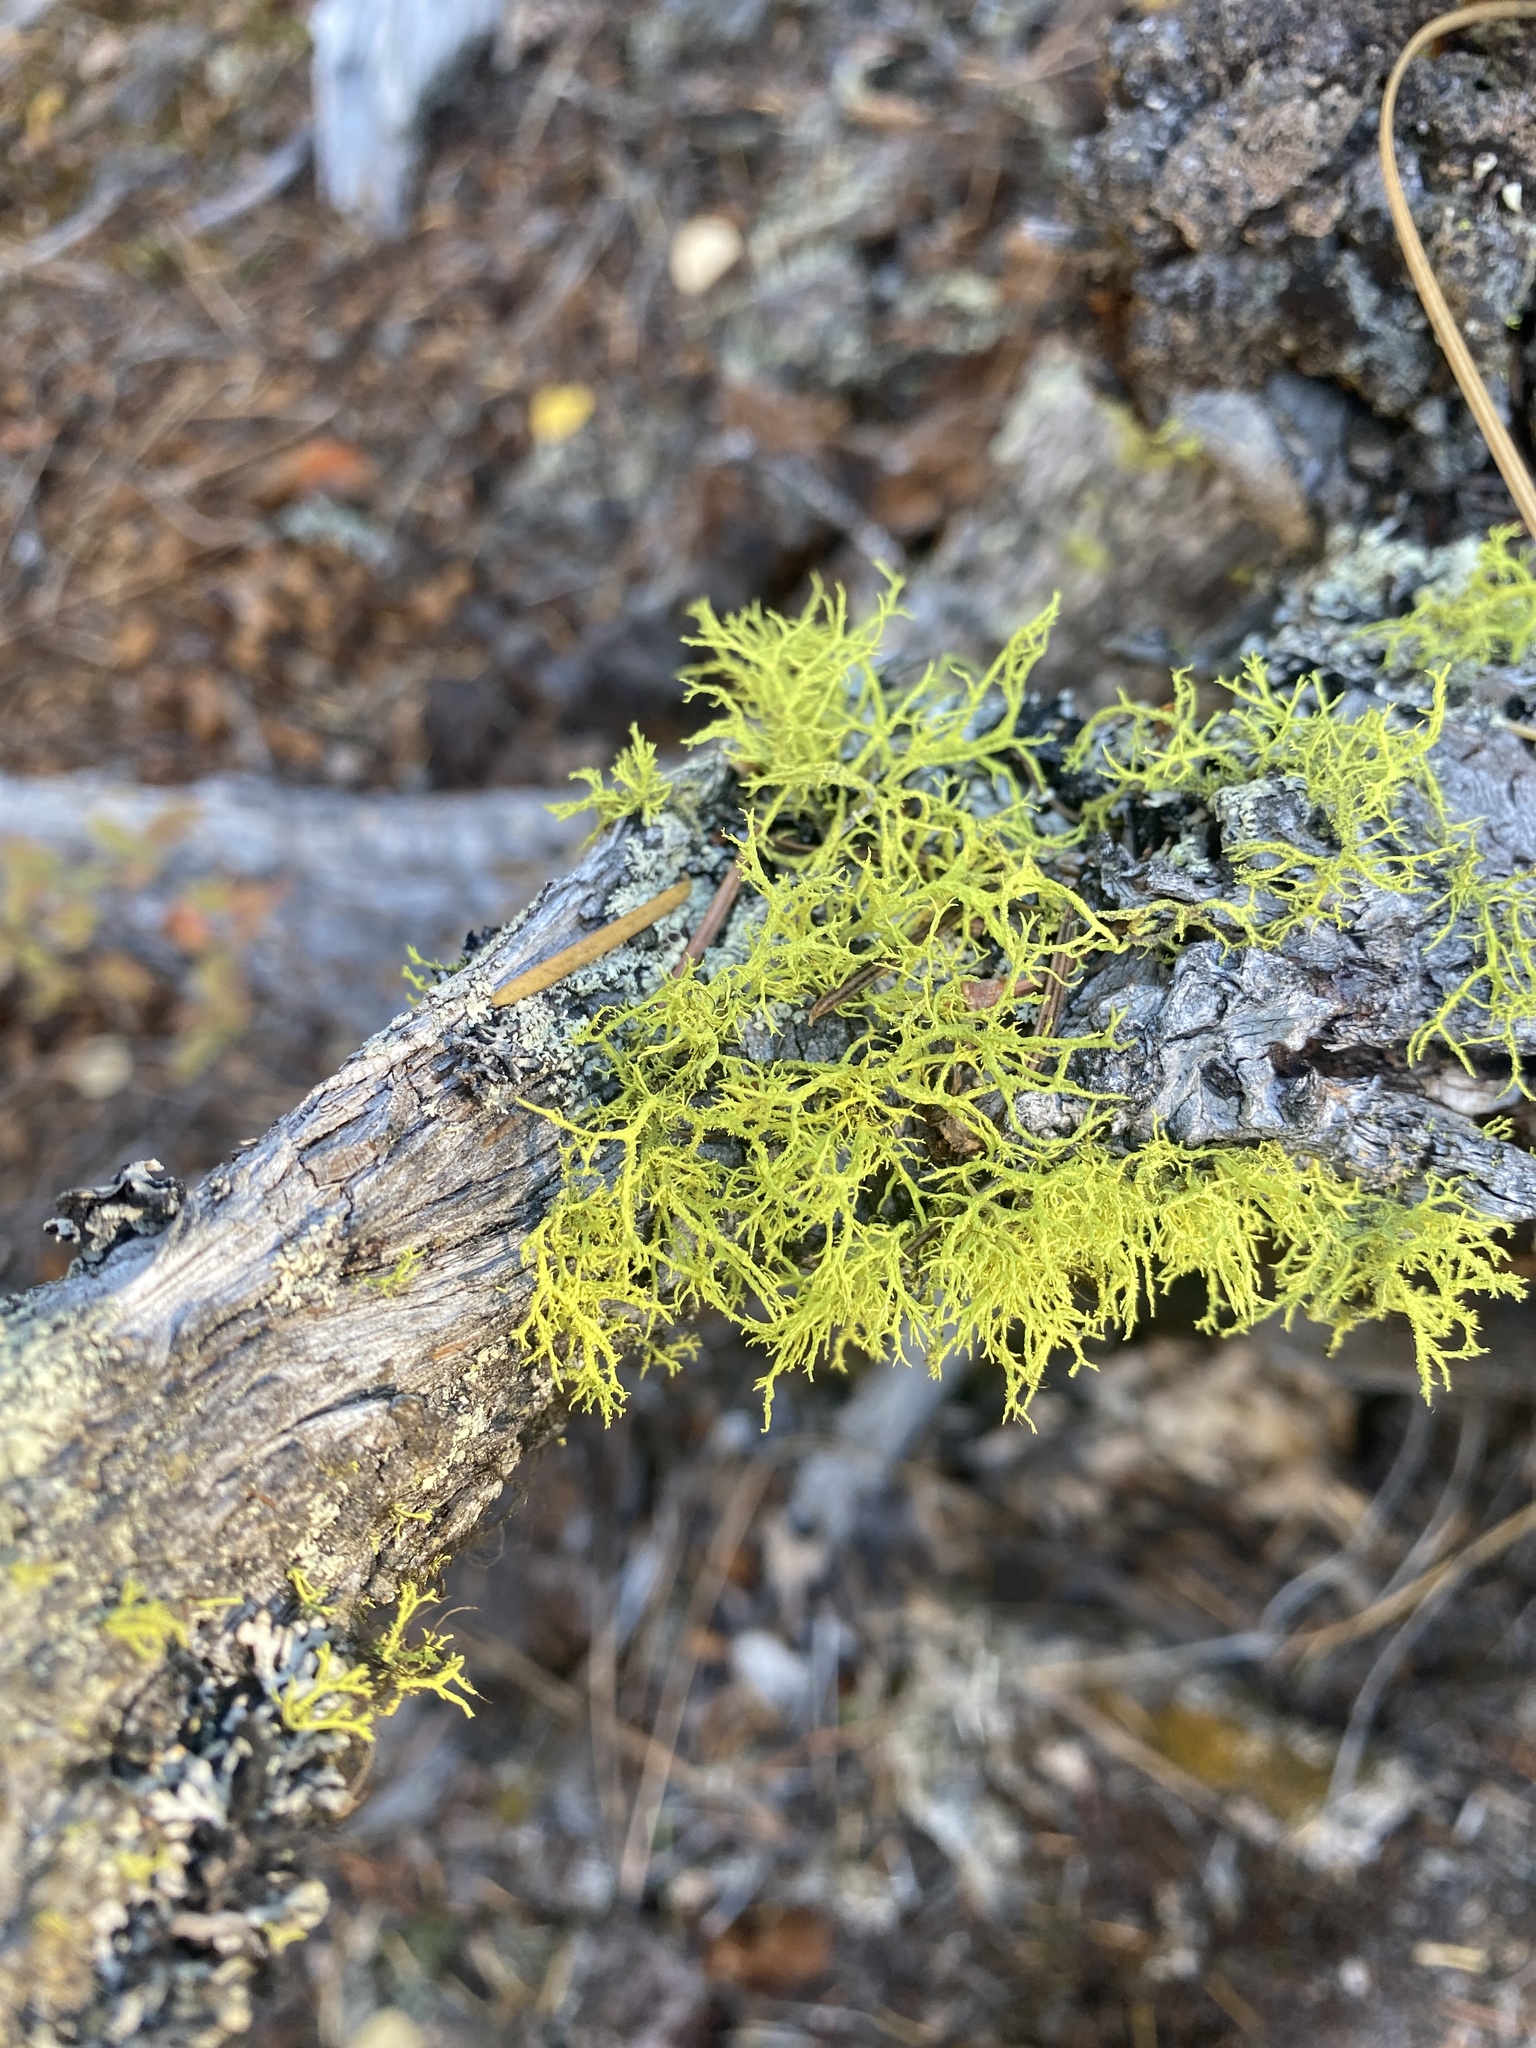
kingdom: Fungi
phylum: Ascomycota
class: Lecanoromycetes
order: Lecanorales
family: Parmeliaceae
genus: Letharia
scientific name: Letharia vulpina
